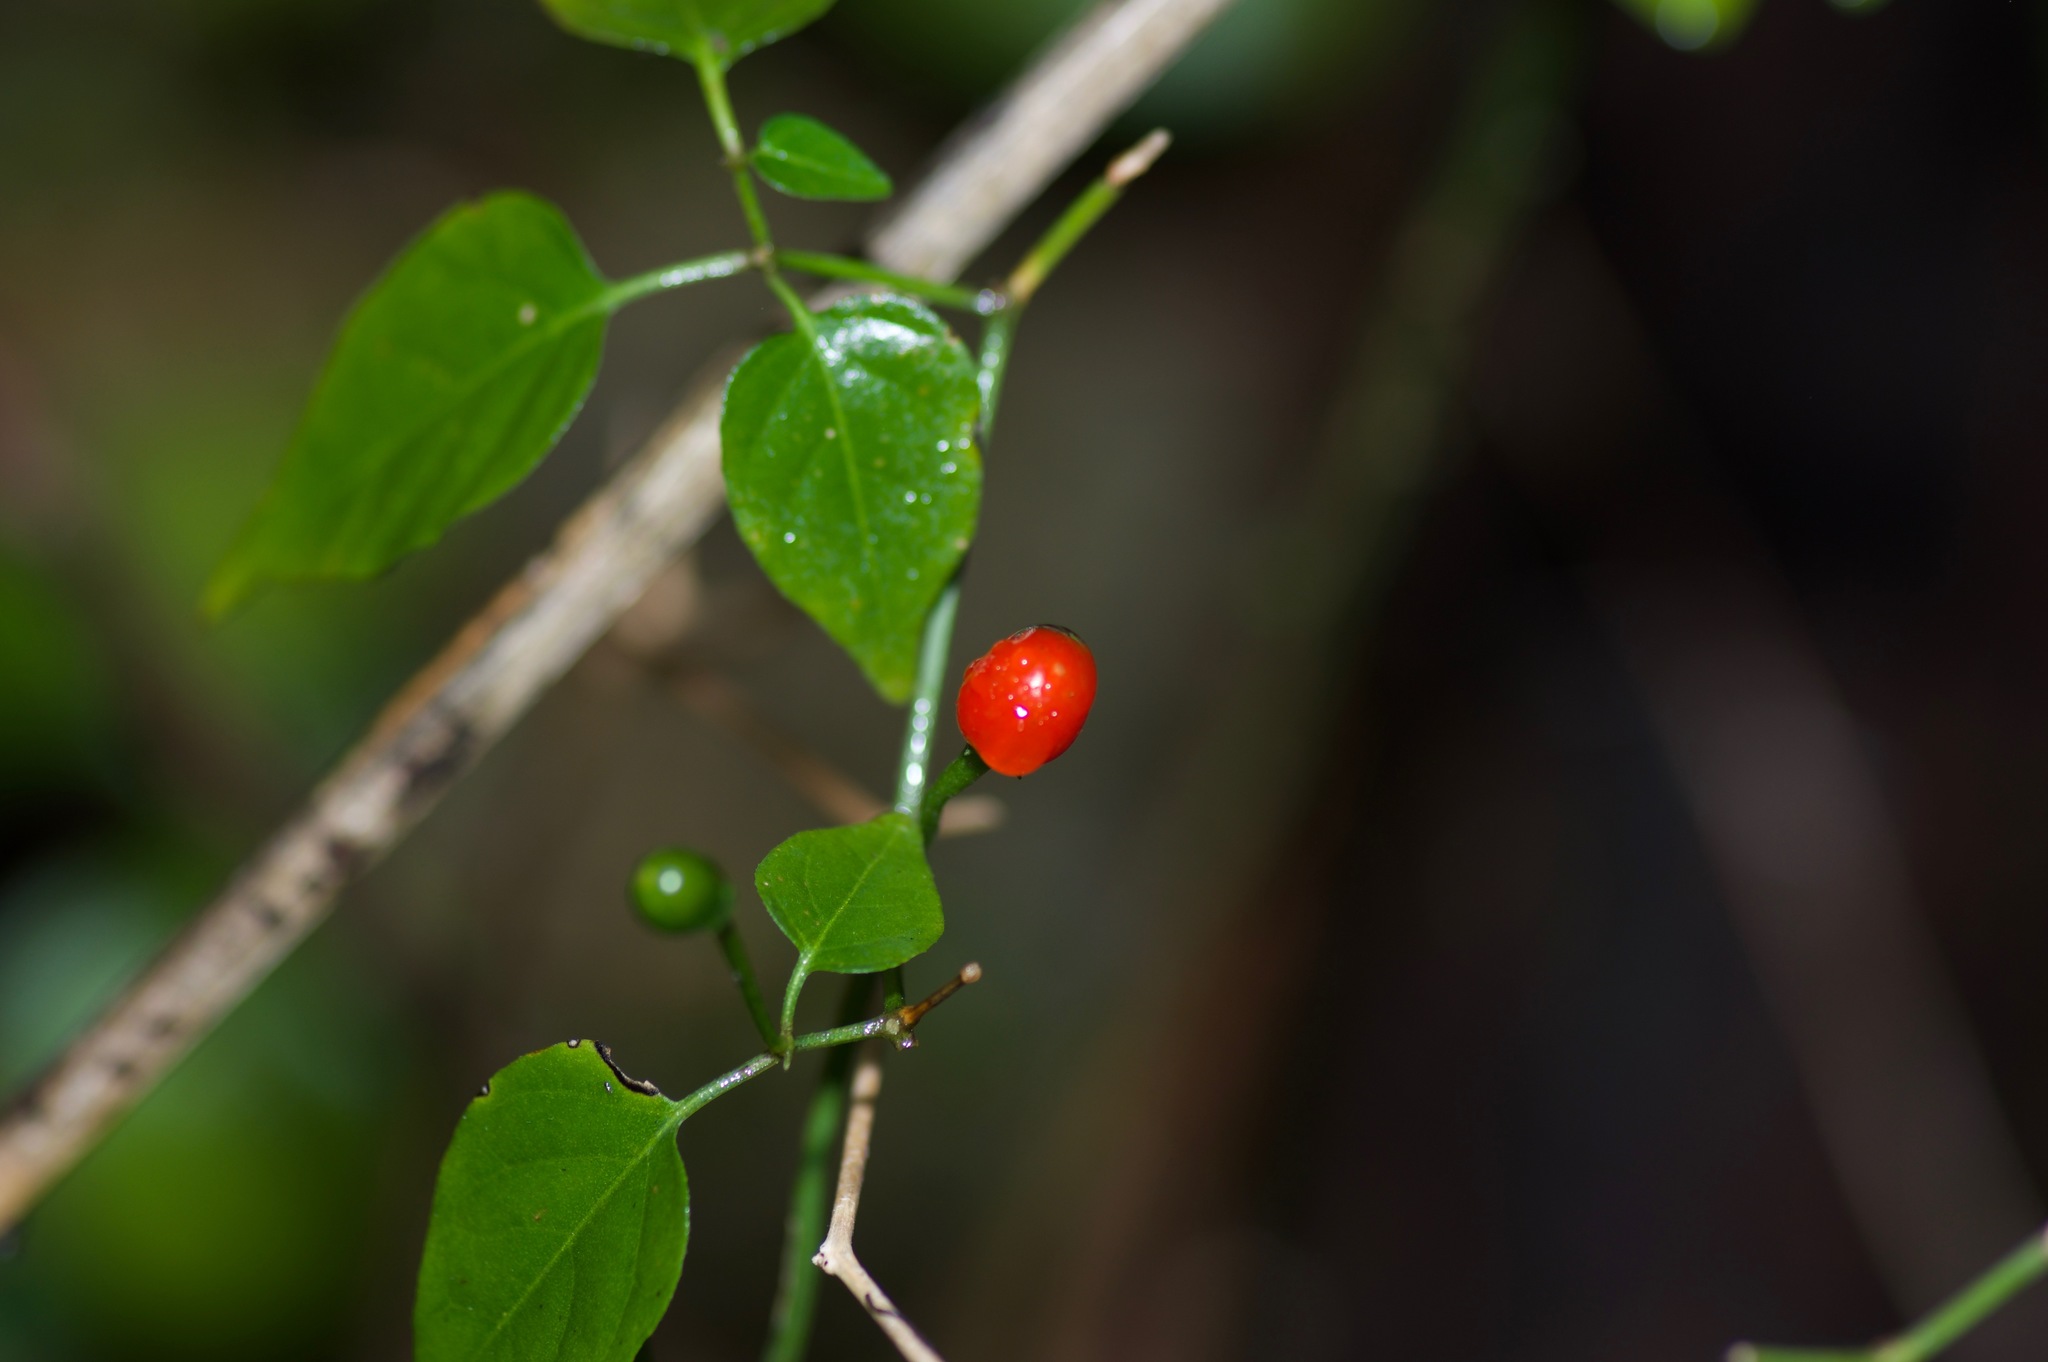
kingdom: Plantae
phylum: Tracheophyta
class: Magnoliopsida
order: Solanales
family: Solanaceae
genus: Capsicum
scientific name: Capsicum annuum
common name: Sweet pepper
